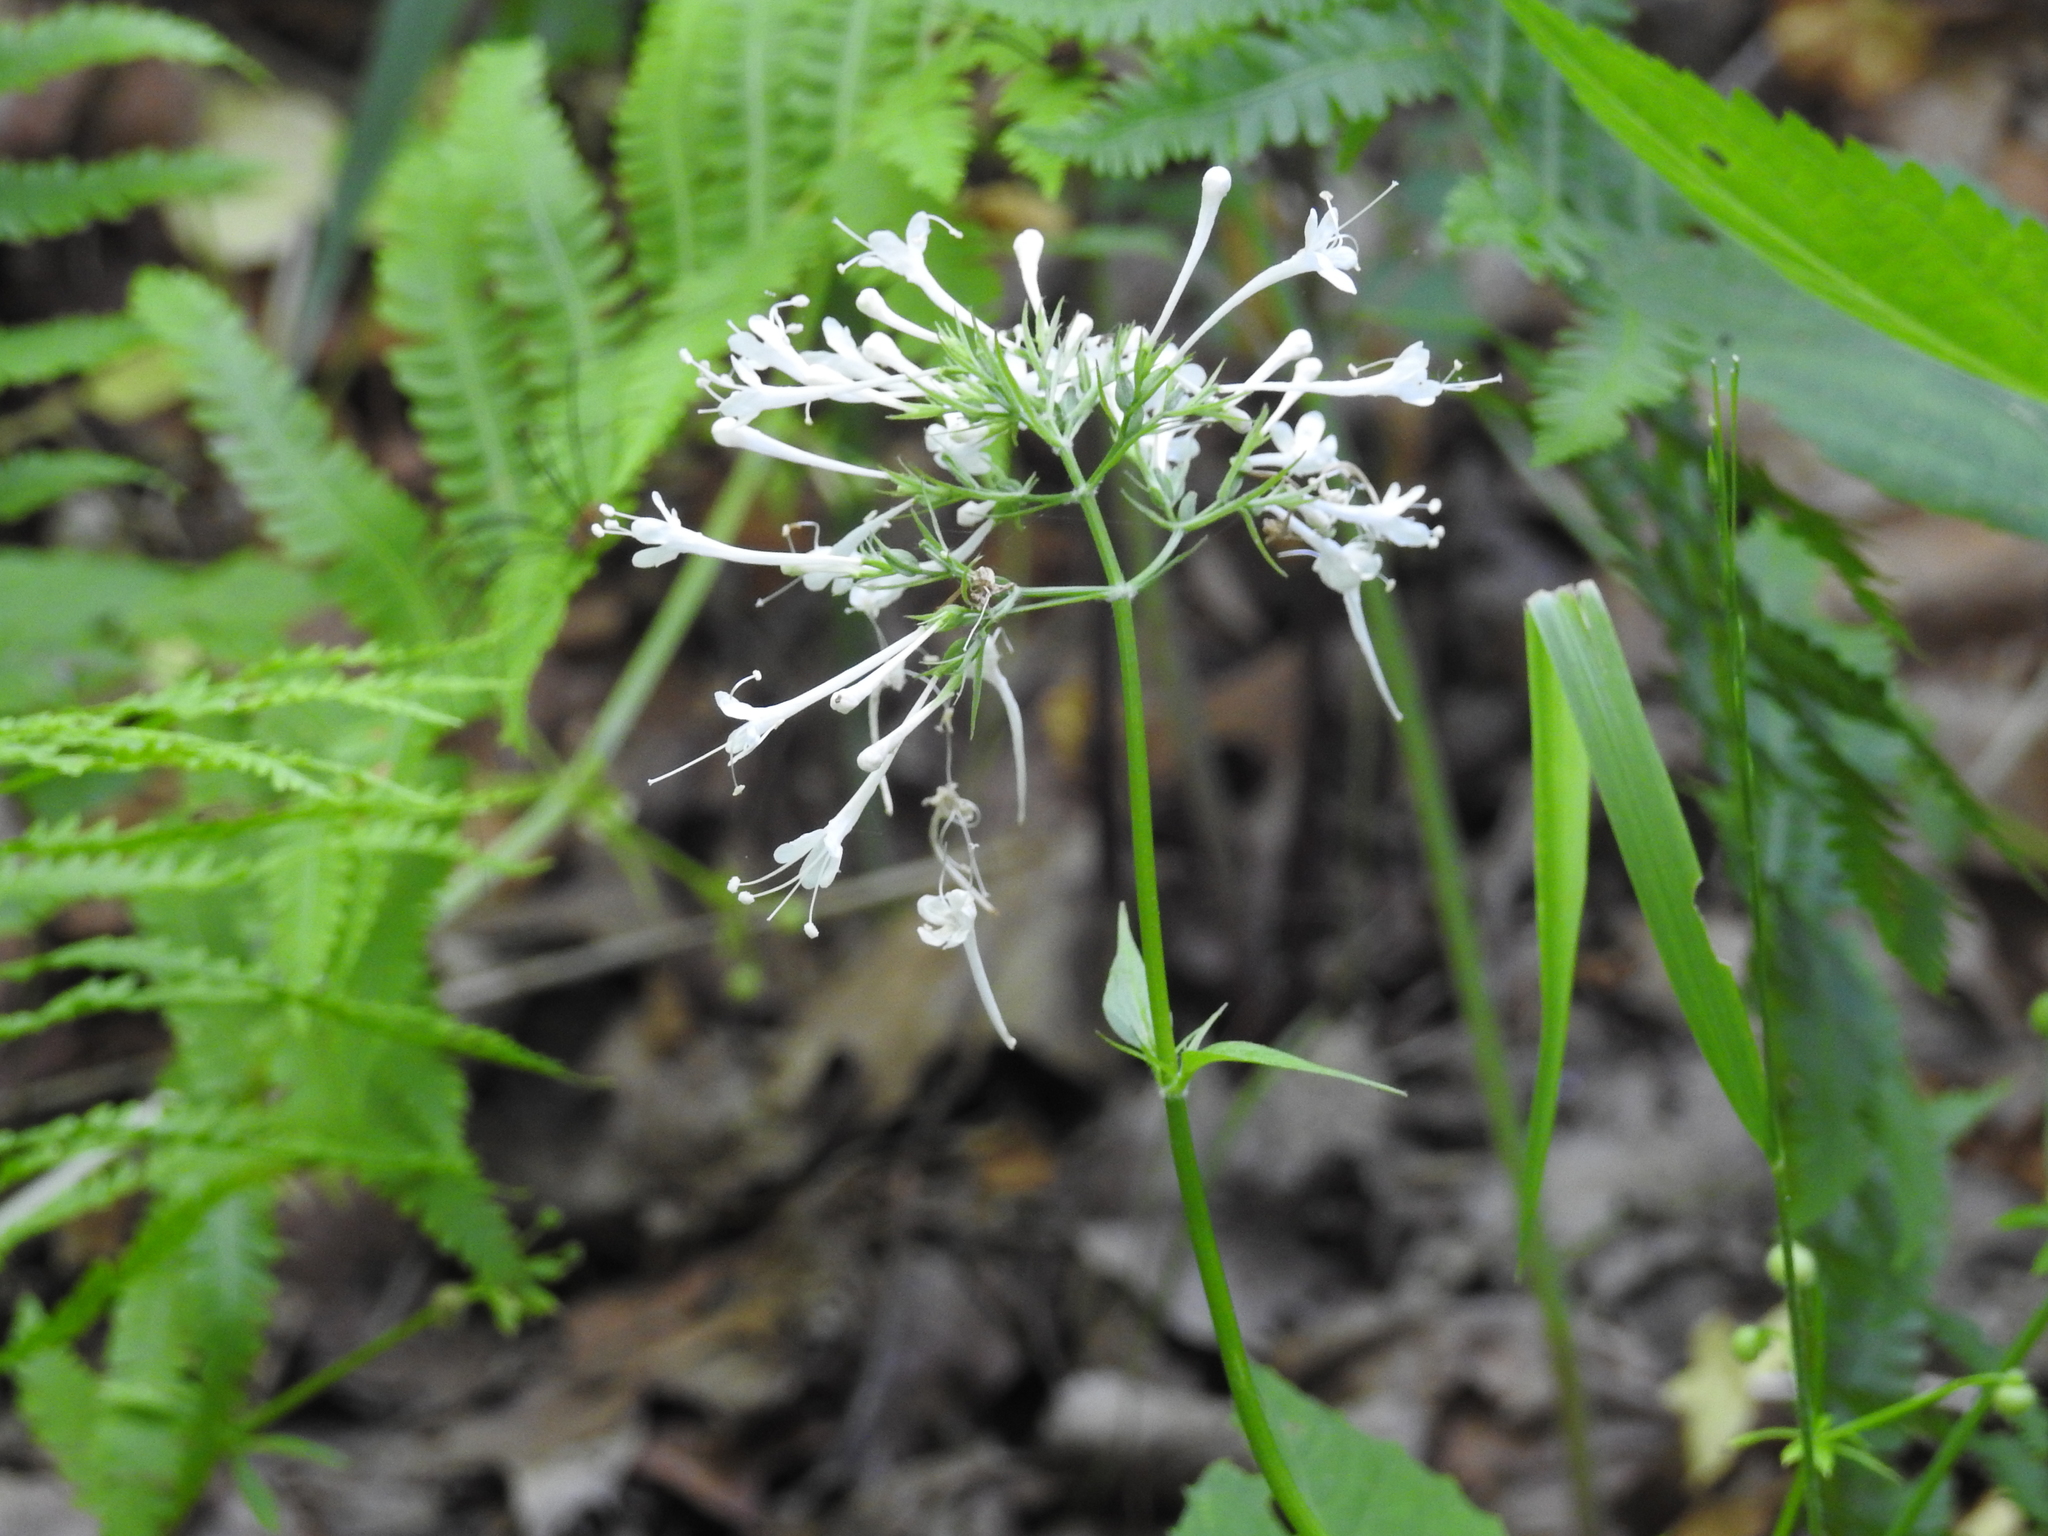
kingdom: Plantae
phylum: Tracheophyta
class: Magnoliopsida
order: Dipsacales
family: Caprifoliaceae
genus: Valeriana
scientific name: Valeriana pauciflora
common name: Long-tube valeriana
